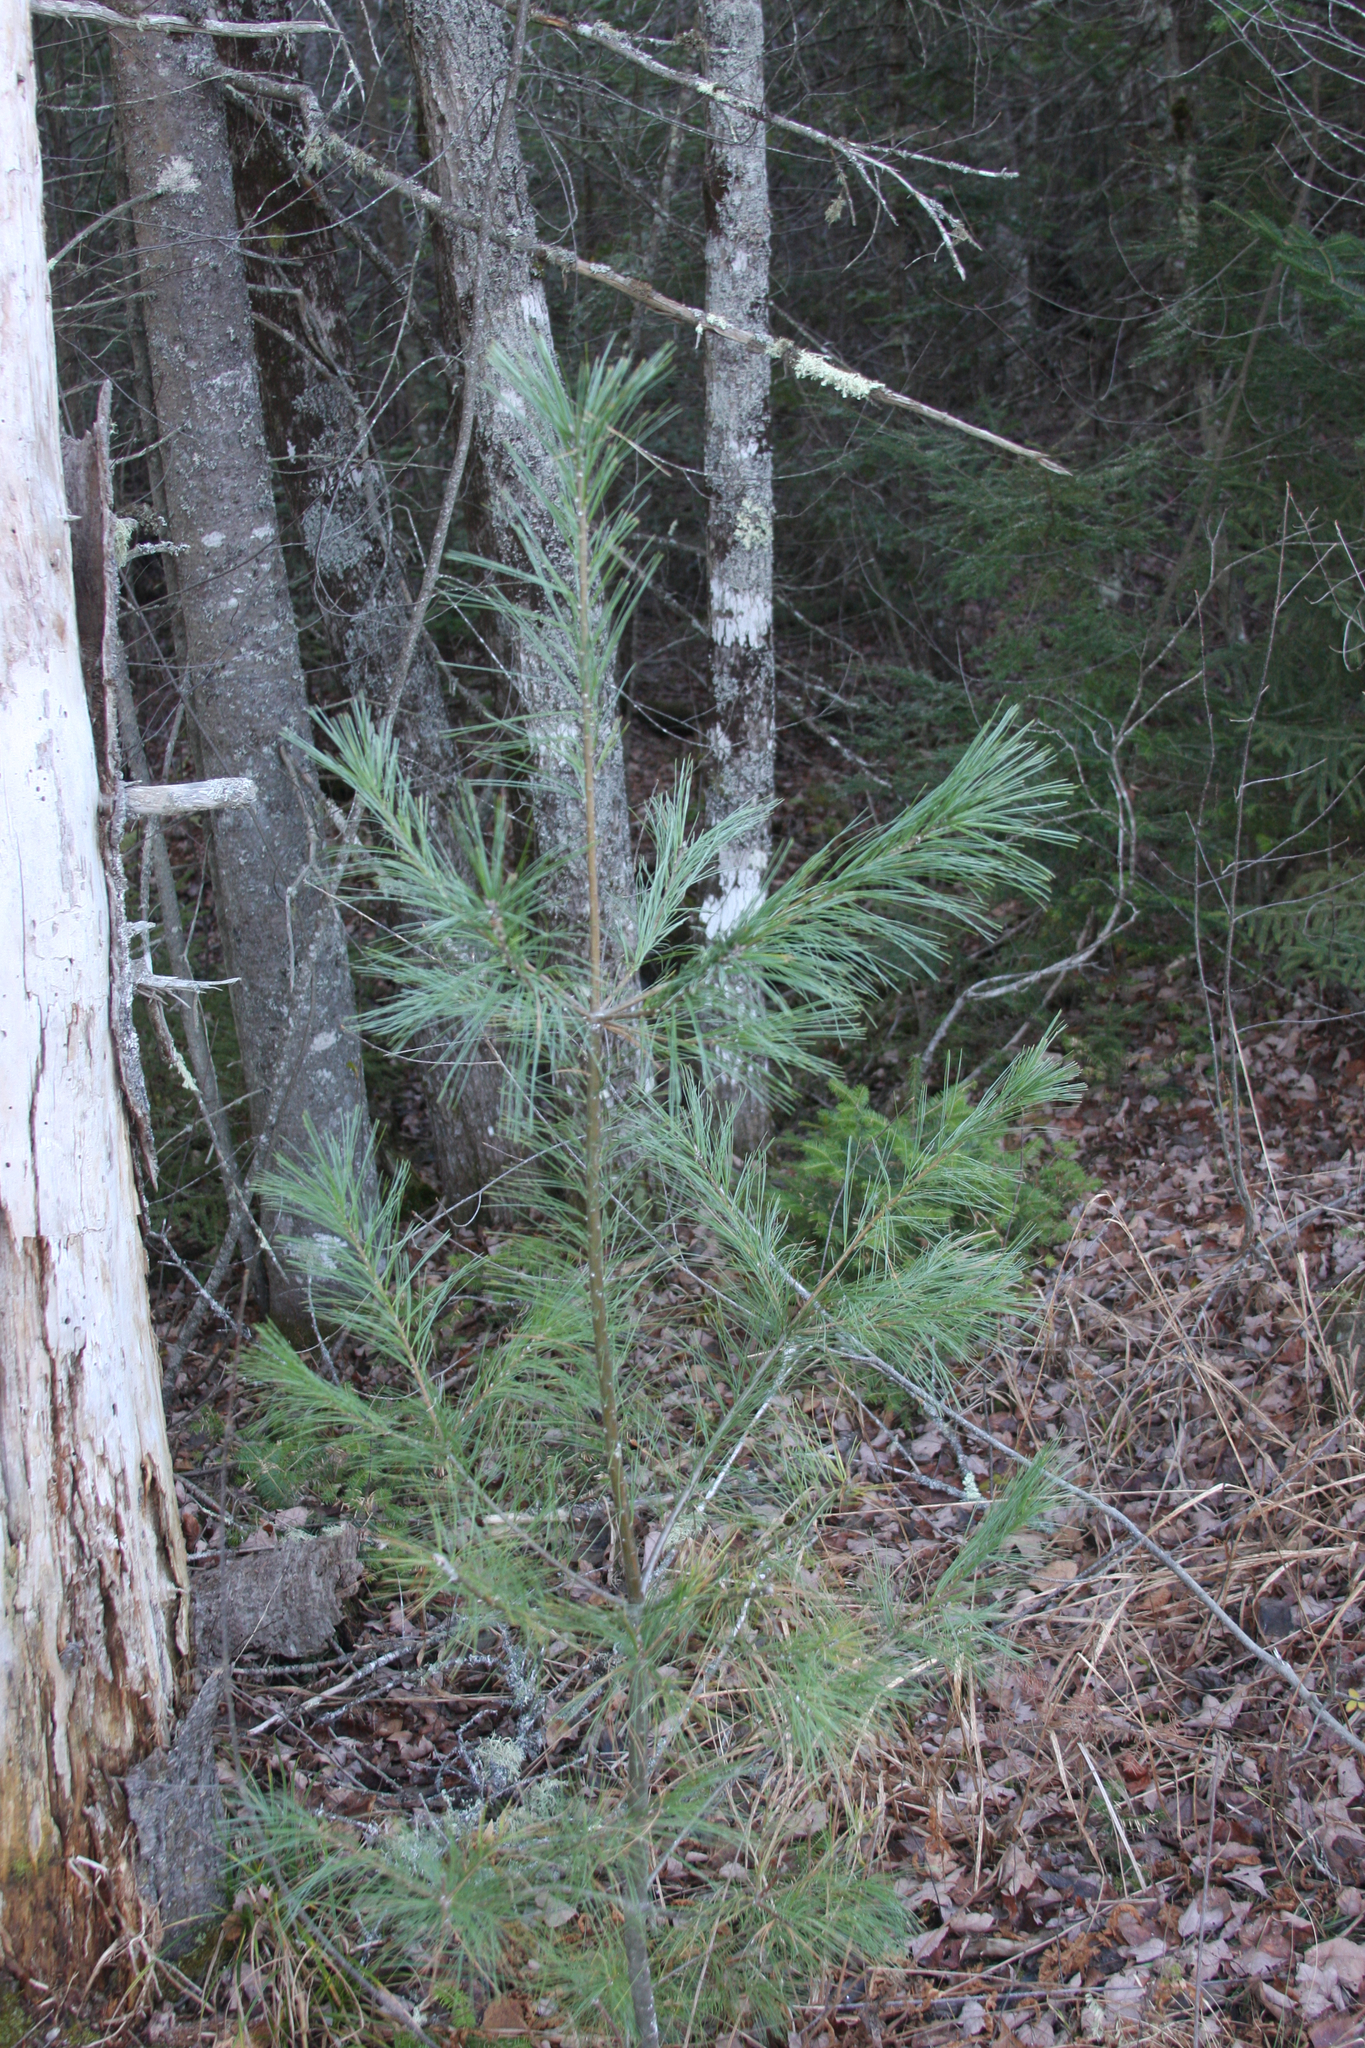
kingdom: Plantae
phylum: Tracheophyta
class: Pinopsida
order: Pinales
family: Pinaceae
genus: Pinus
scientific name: Pinus strobus
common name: Weymouth pine
